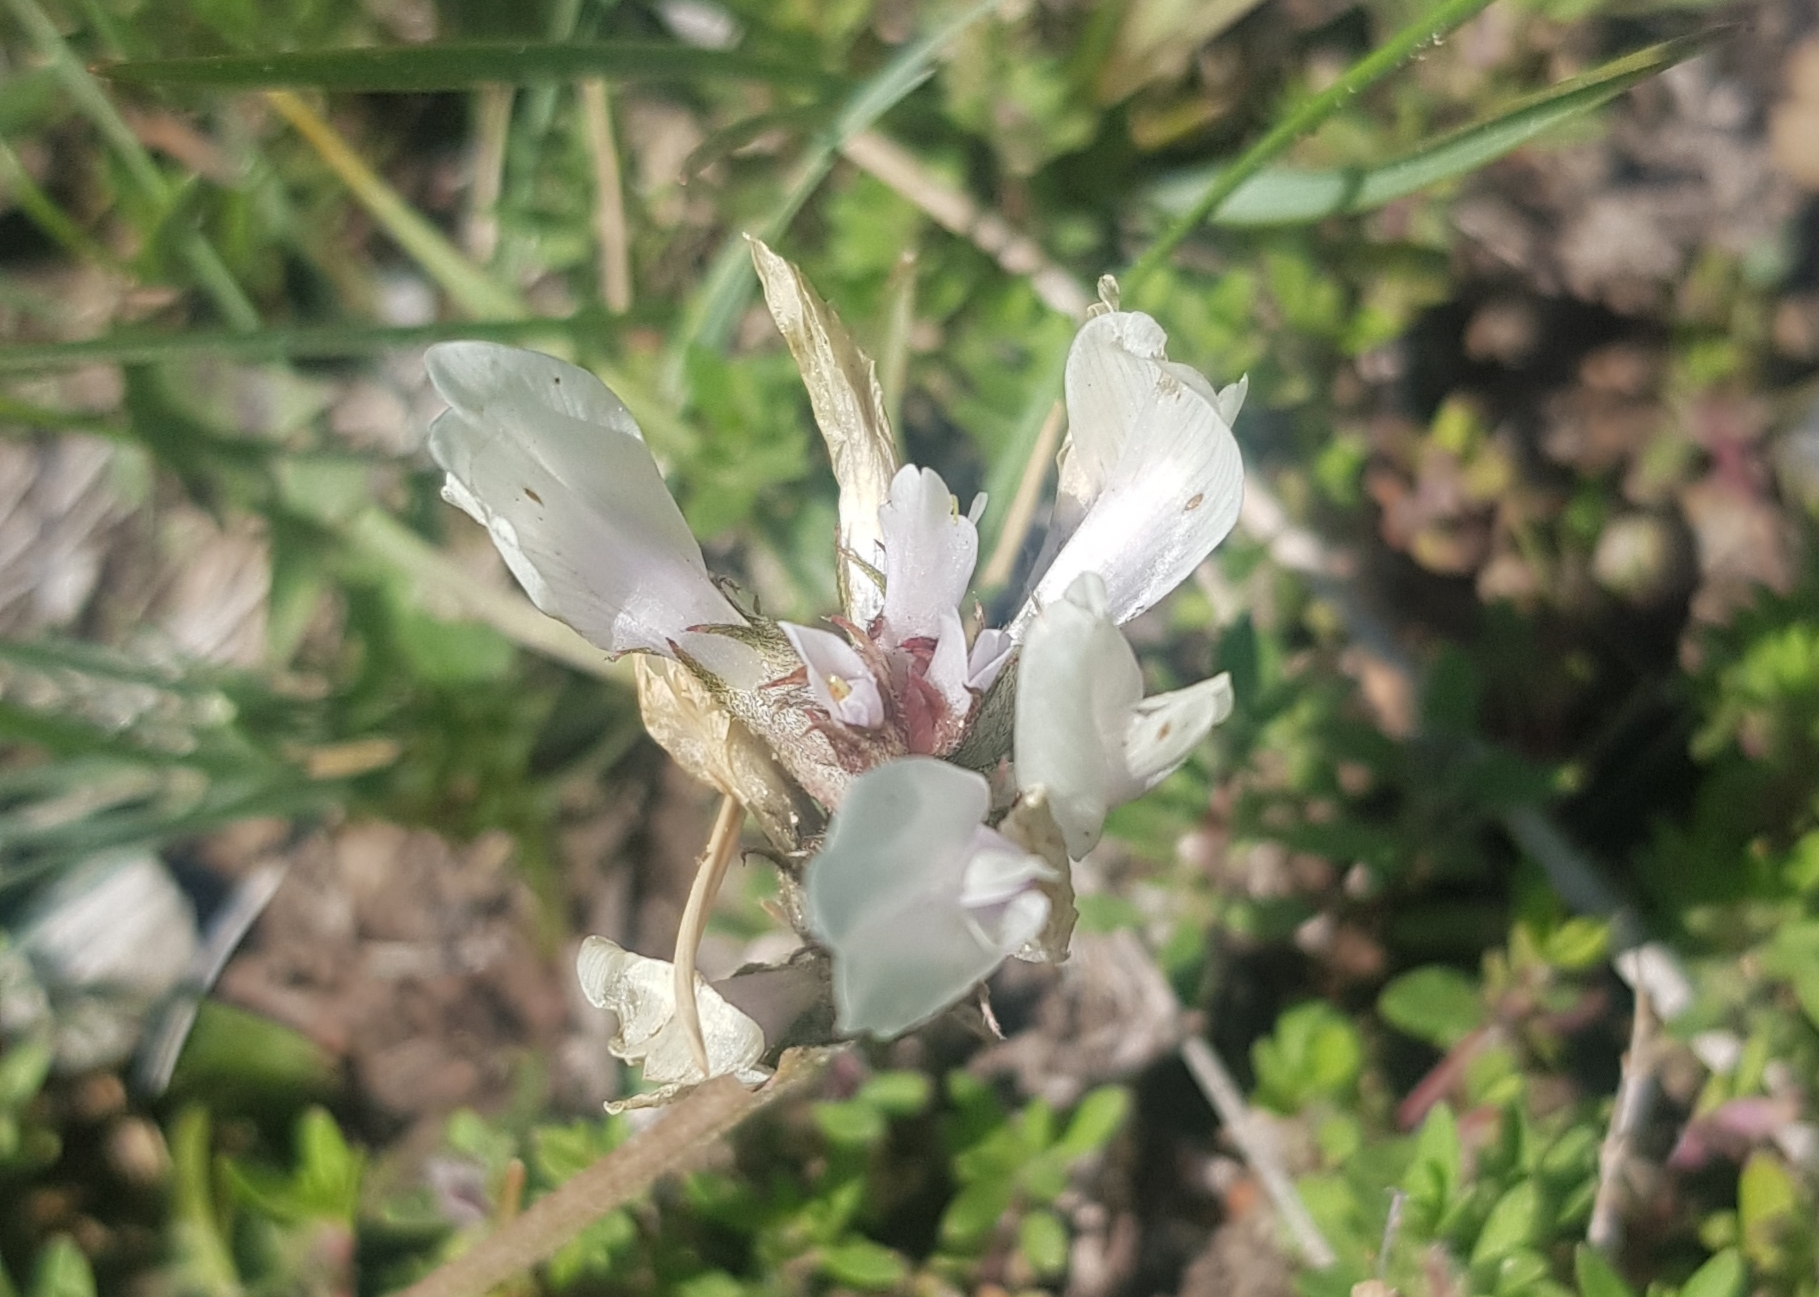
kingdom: Plantae
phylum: Tracheophyta
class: Magnoliopsida
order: Fabales
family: Fabaceae
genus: Oxytropis
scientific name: Oxytropis muricata
